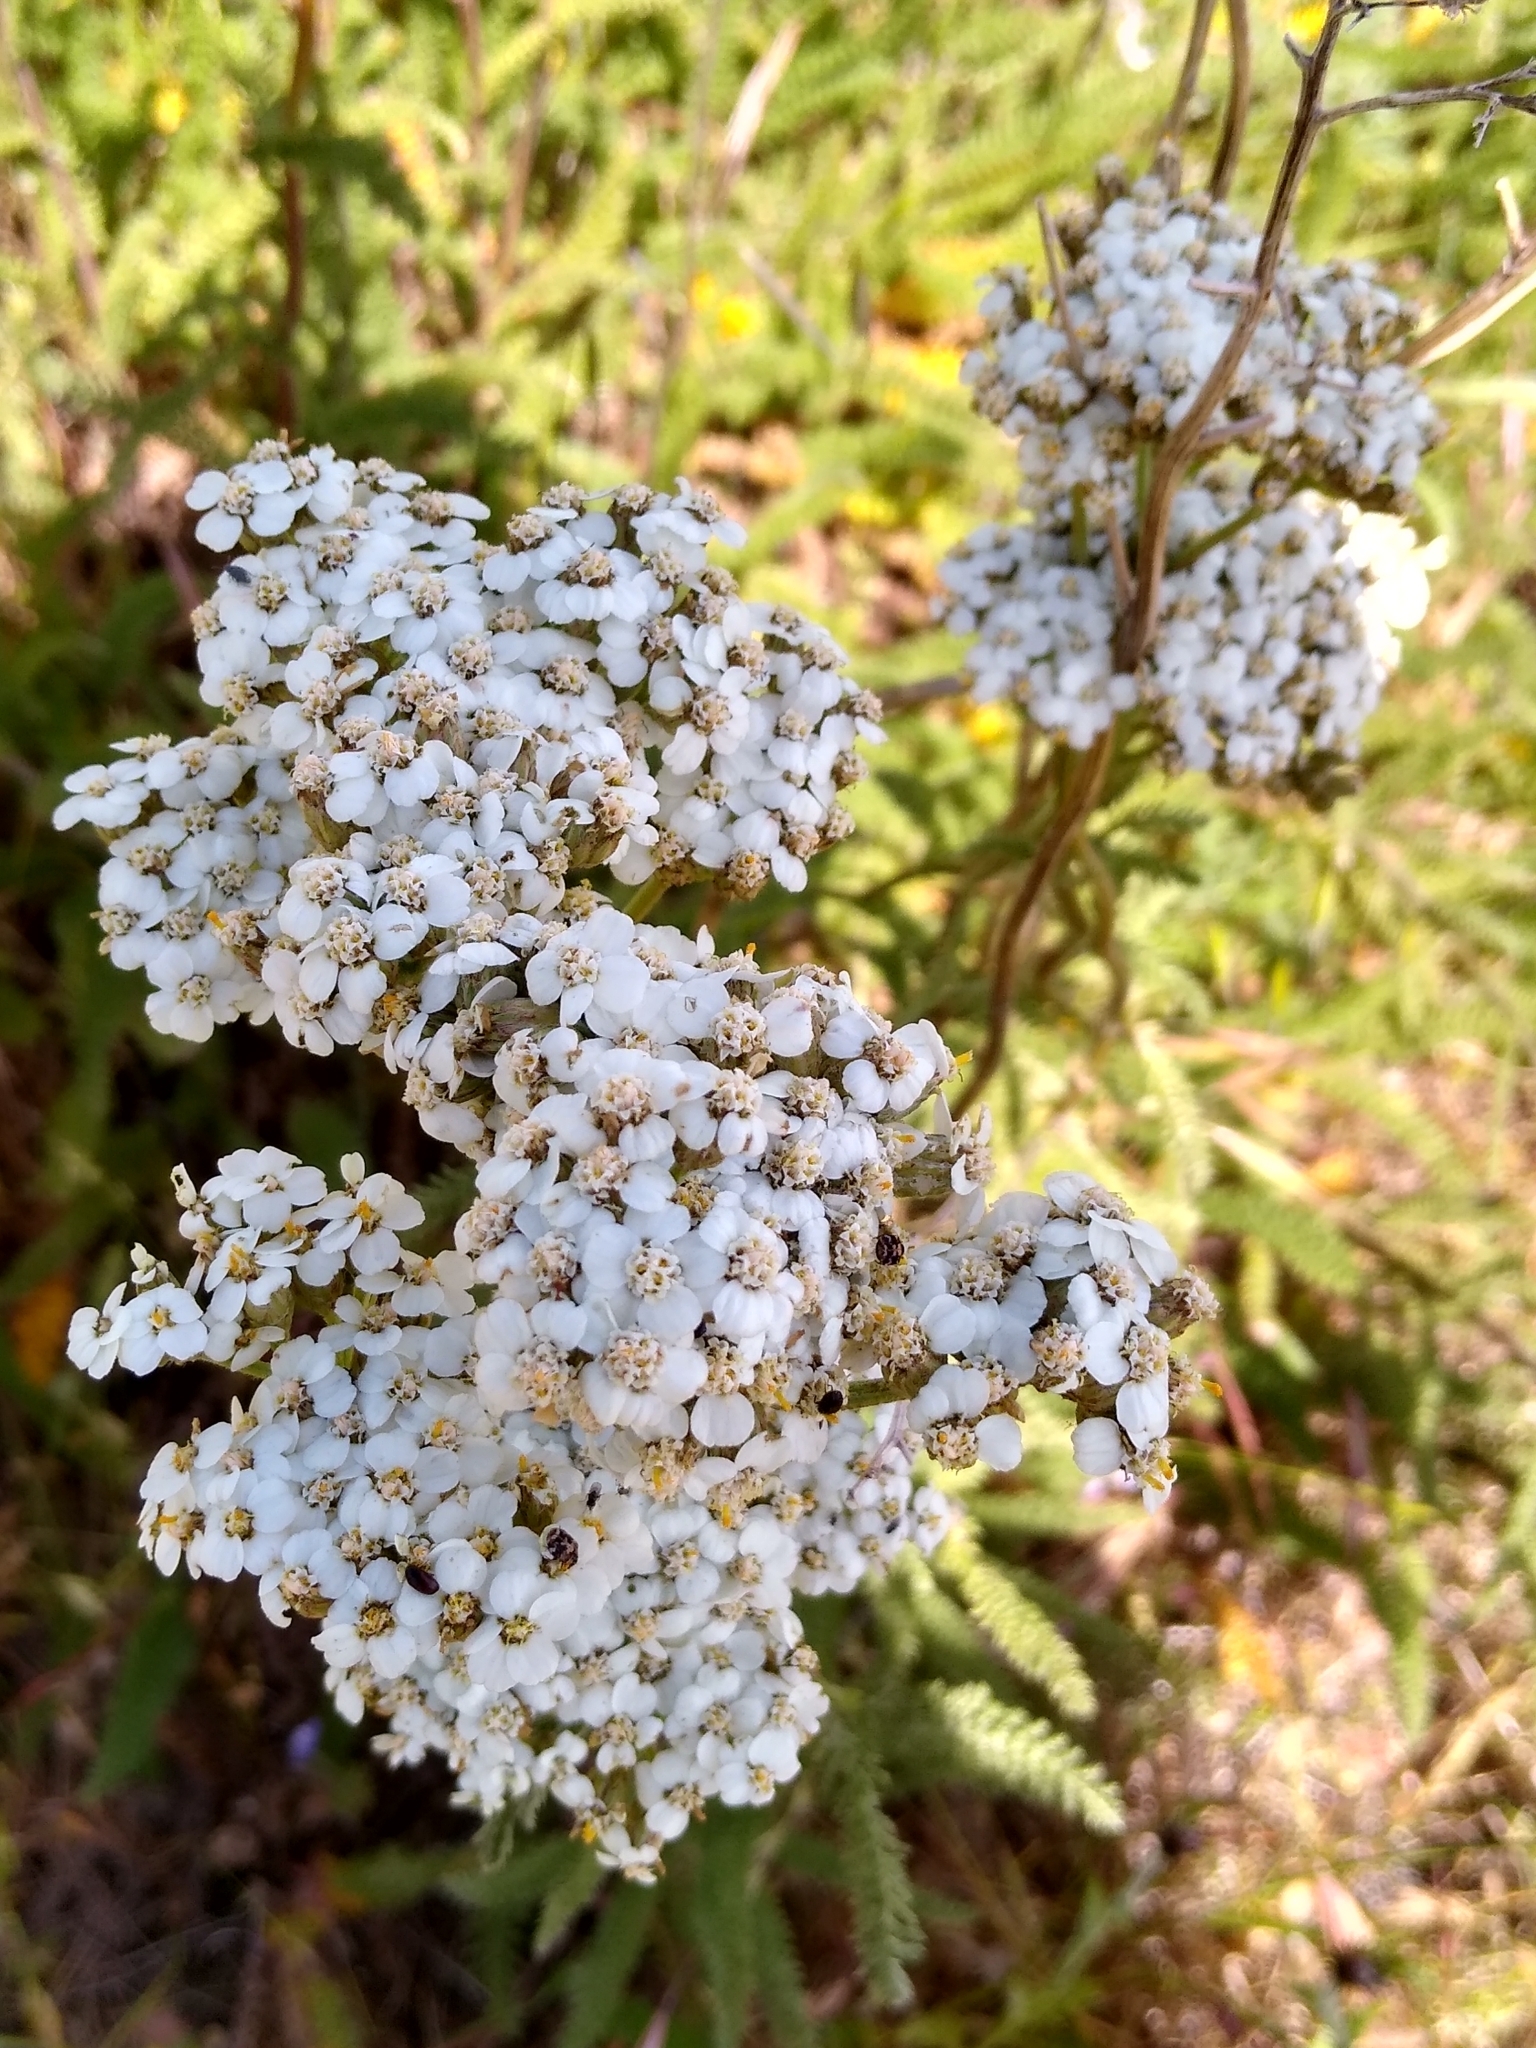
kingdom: Plantae
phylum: Tracheophyta
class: Magnoliopsida
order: Asterales
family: Asteraceae
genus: Achillea
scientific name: Achillea millefolium
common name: Yarrow
